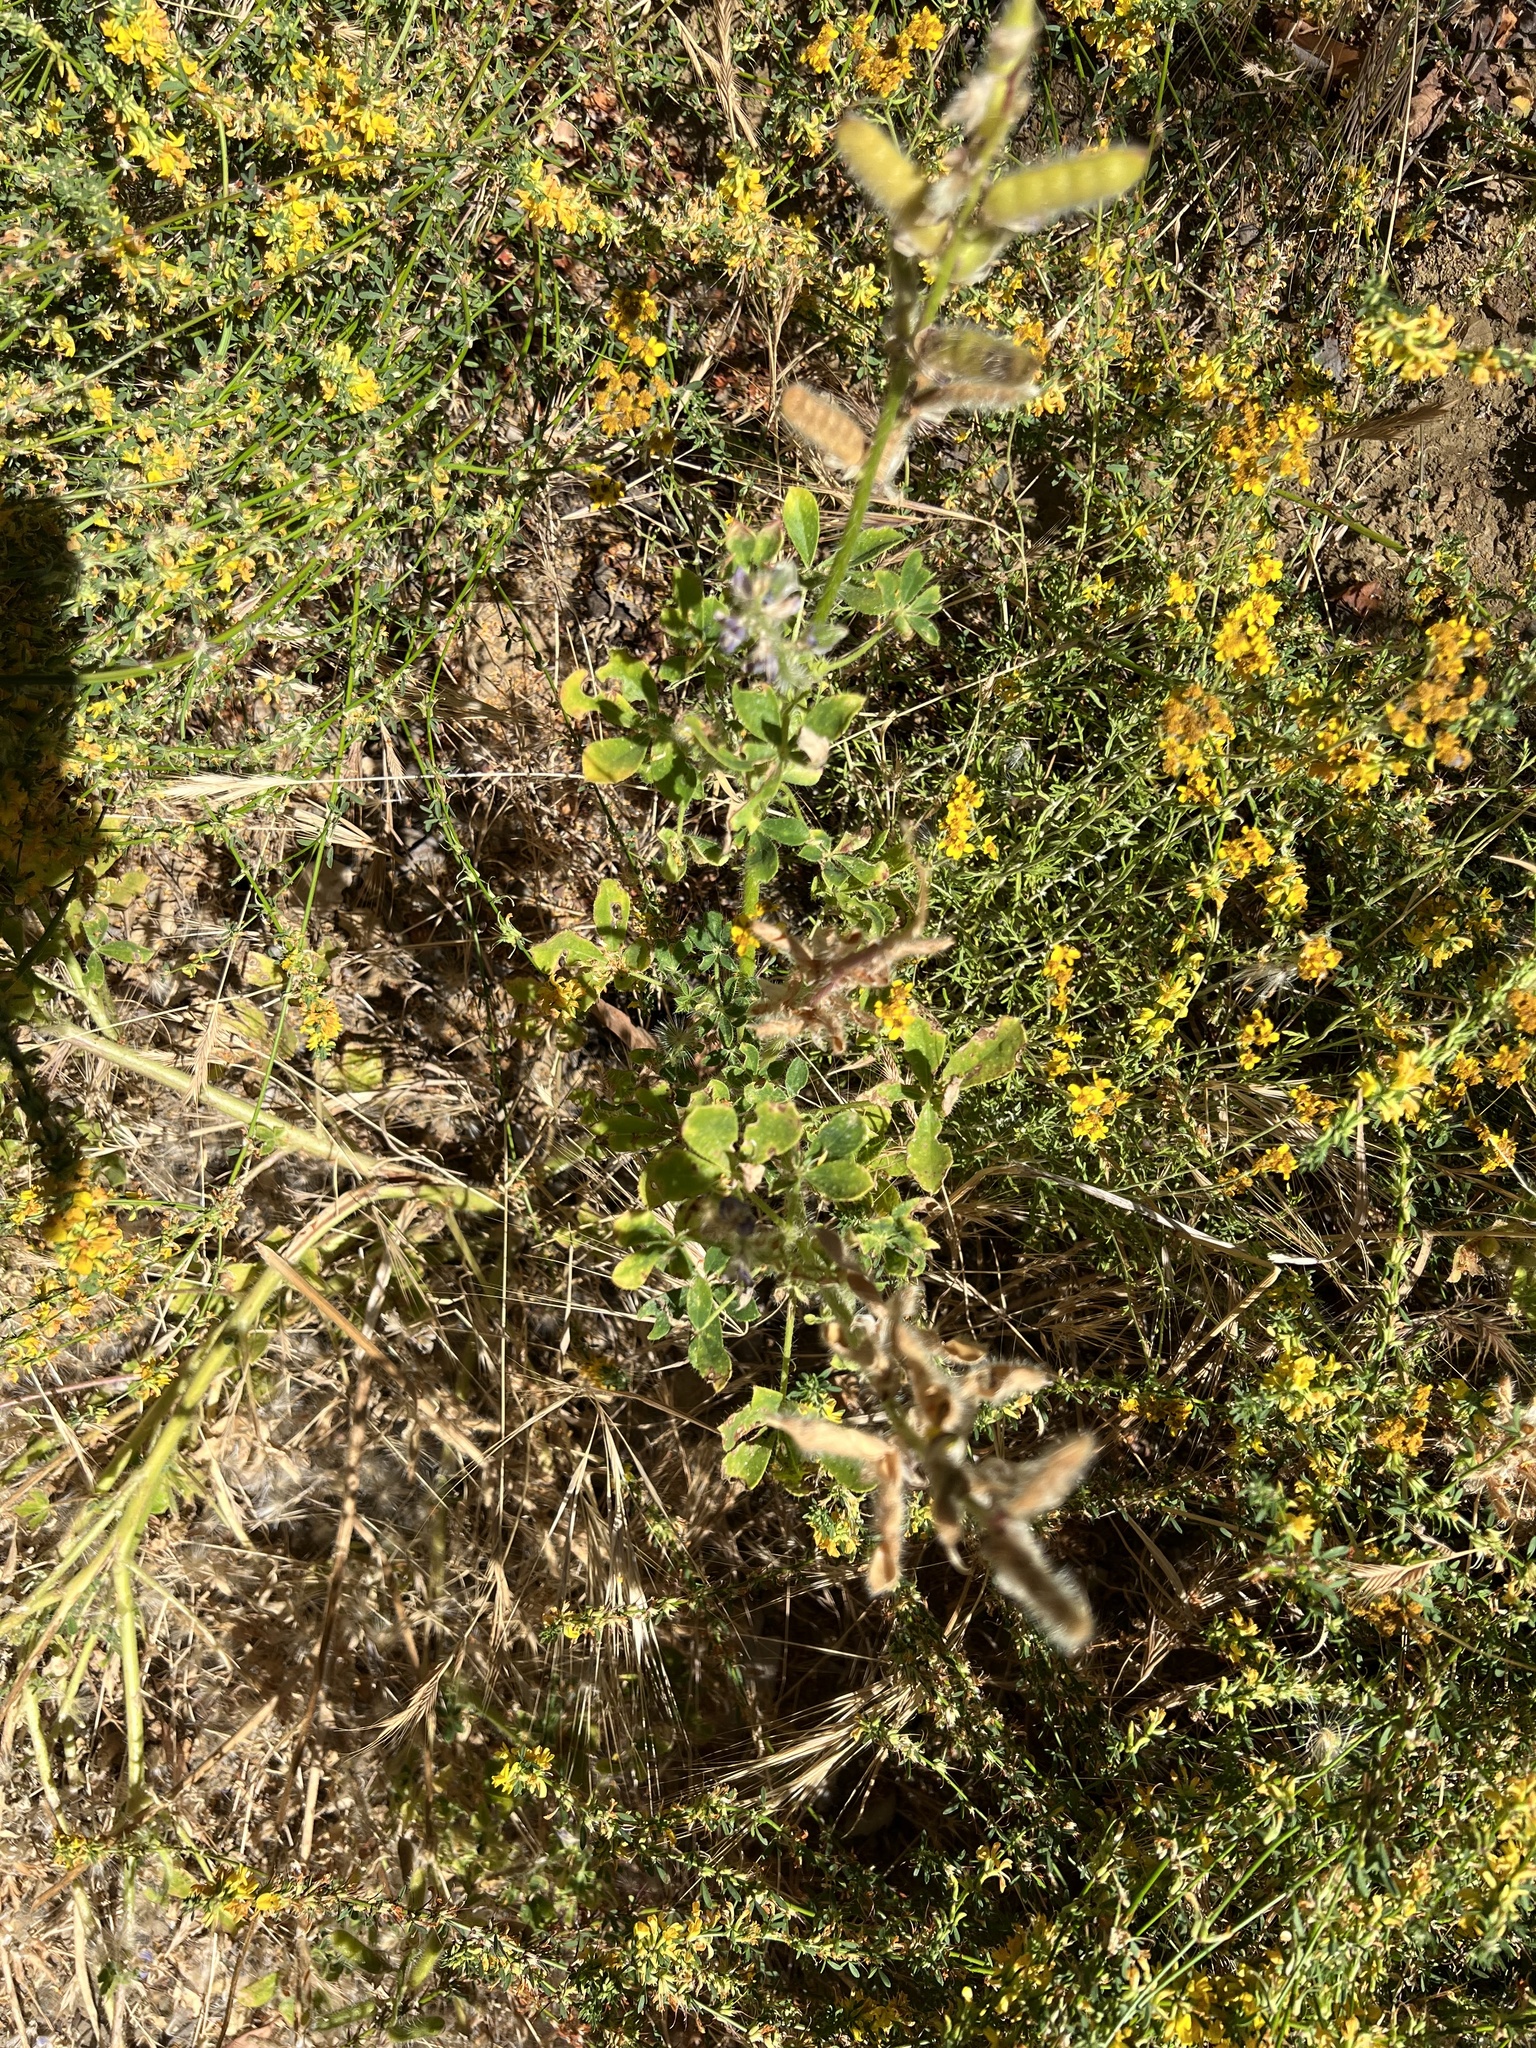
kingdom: Plantae
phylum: Tracheophyta
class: Magnoliopsida
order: Fabales
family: Fabaceae
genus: Lupinus
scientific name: Lupinus hirsutissimus
